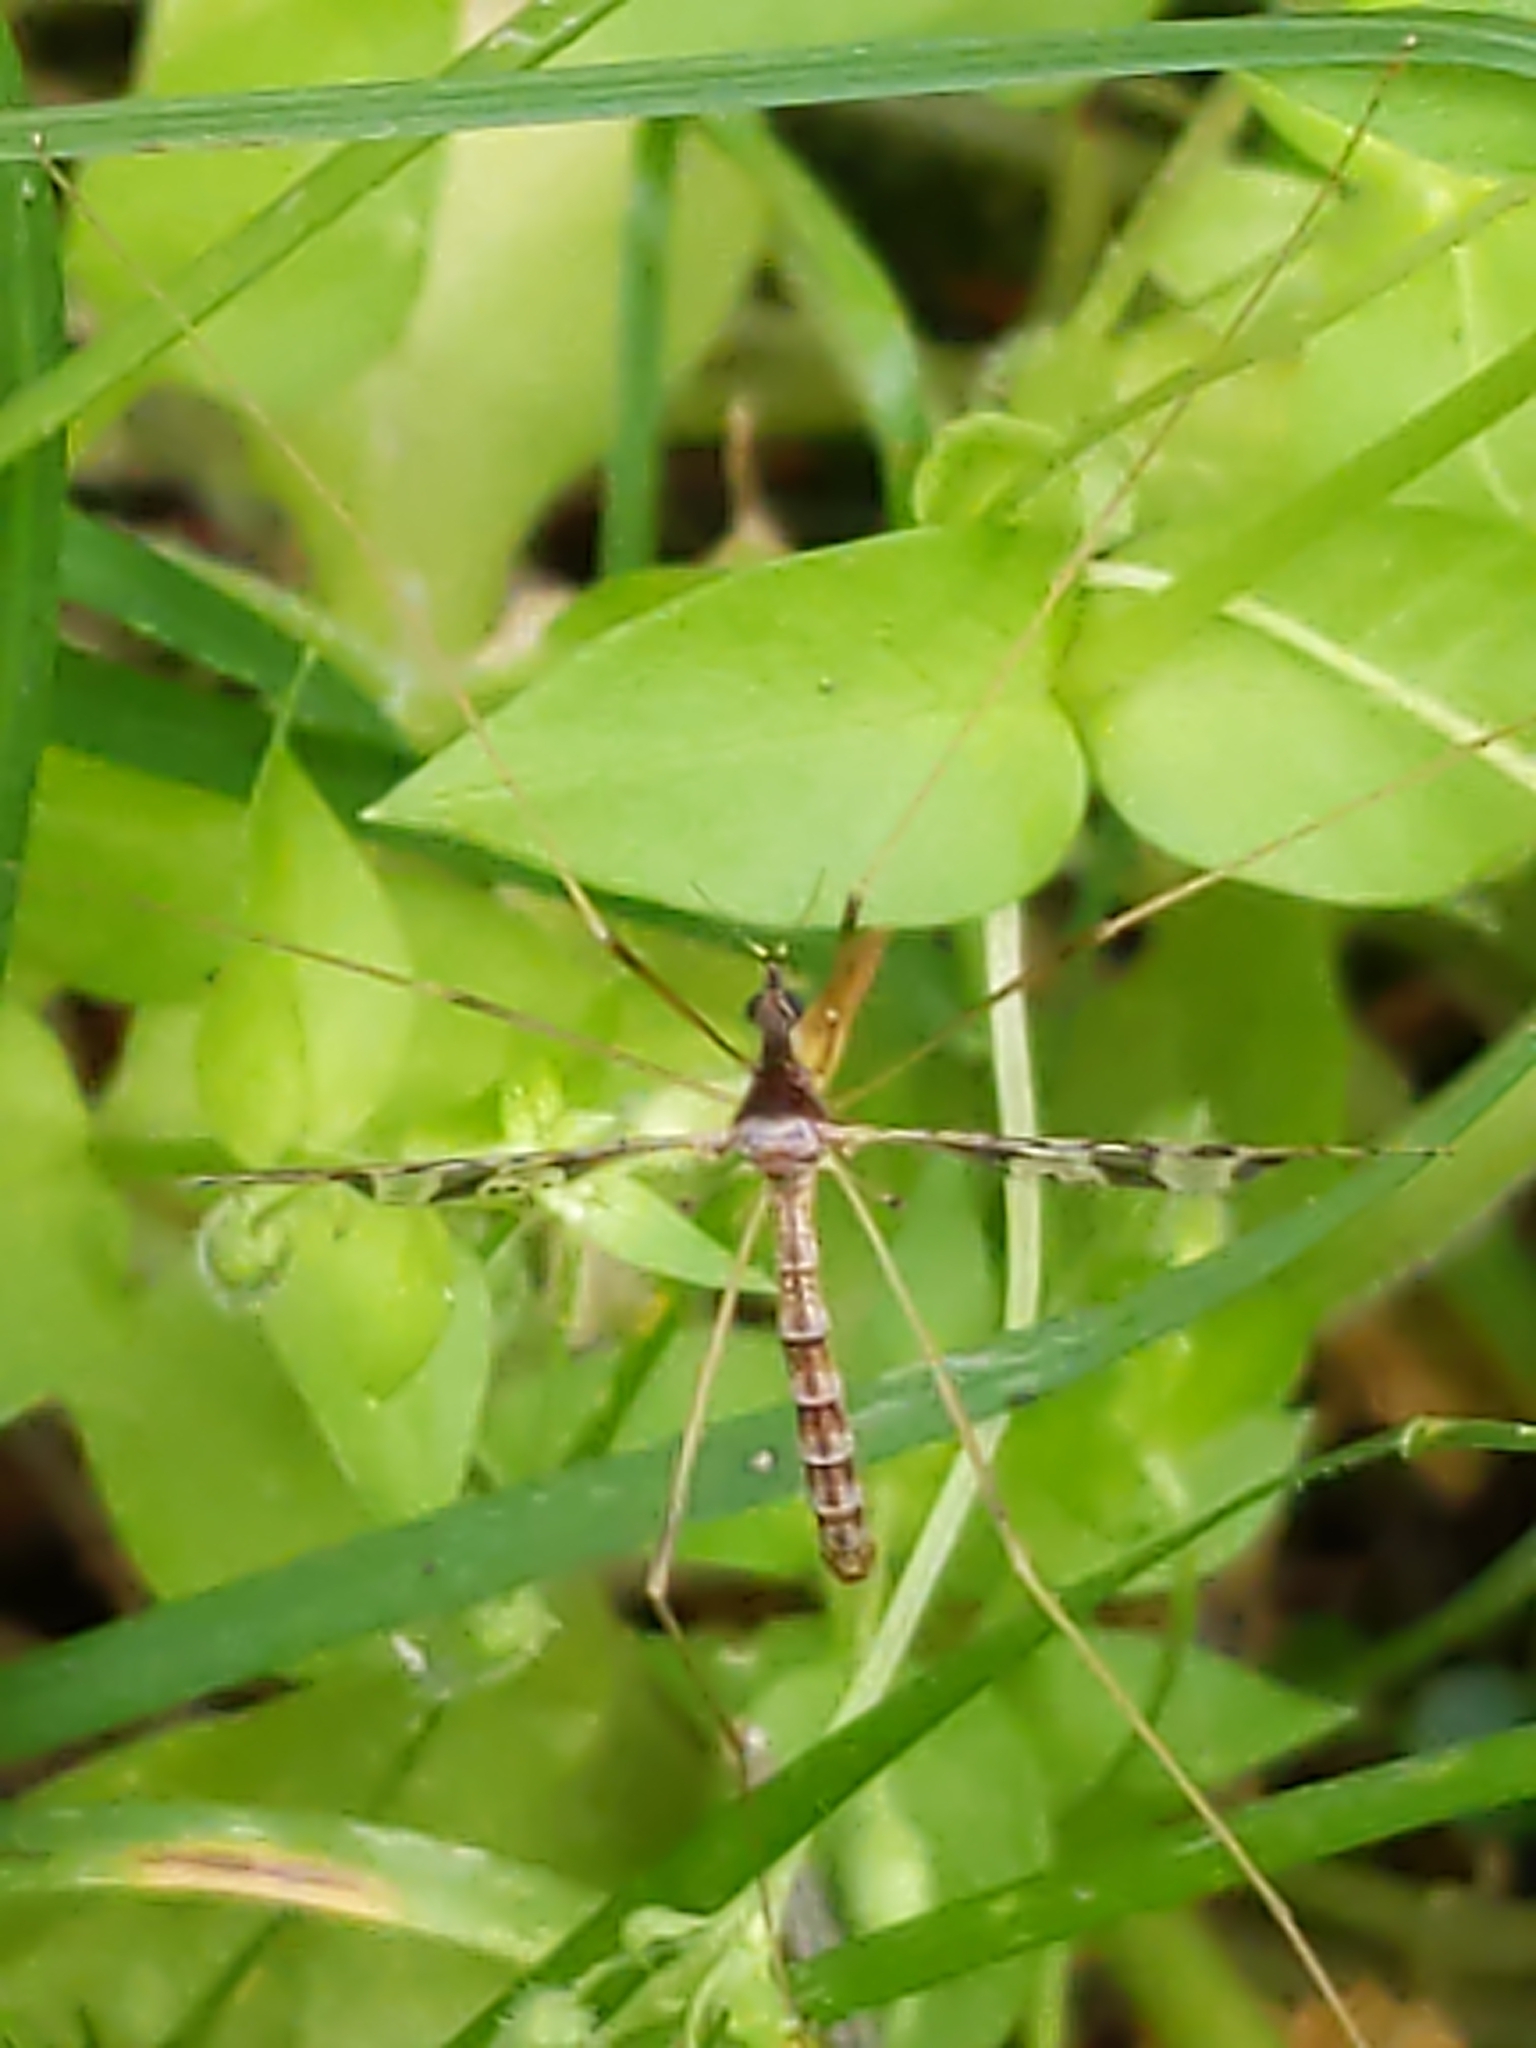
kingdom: Animalia
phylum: Arthropoda
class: Insecta
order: Diptera
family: Limoniidae
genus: Epiphragma
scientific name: Epiphragma solatrix
